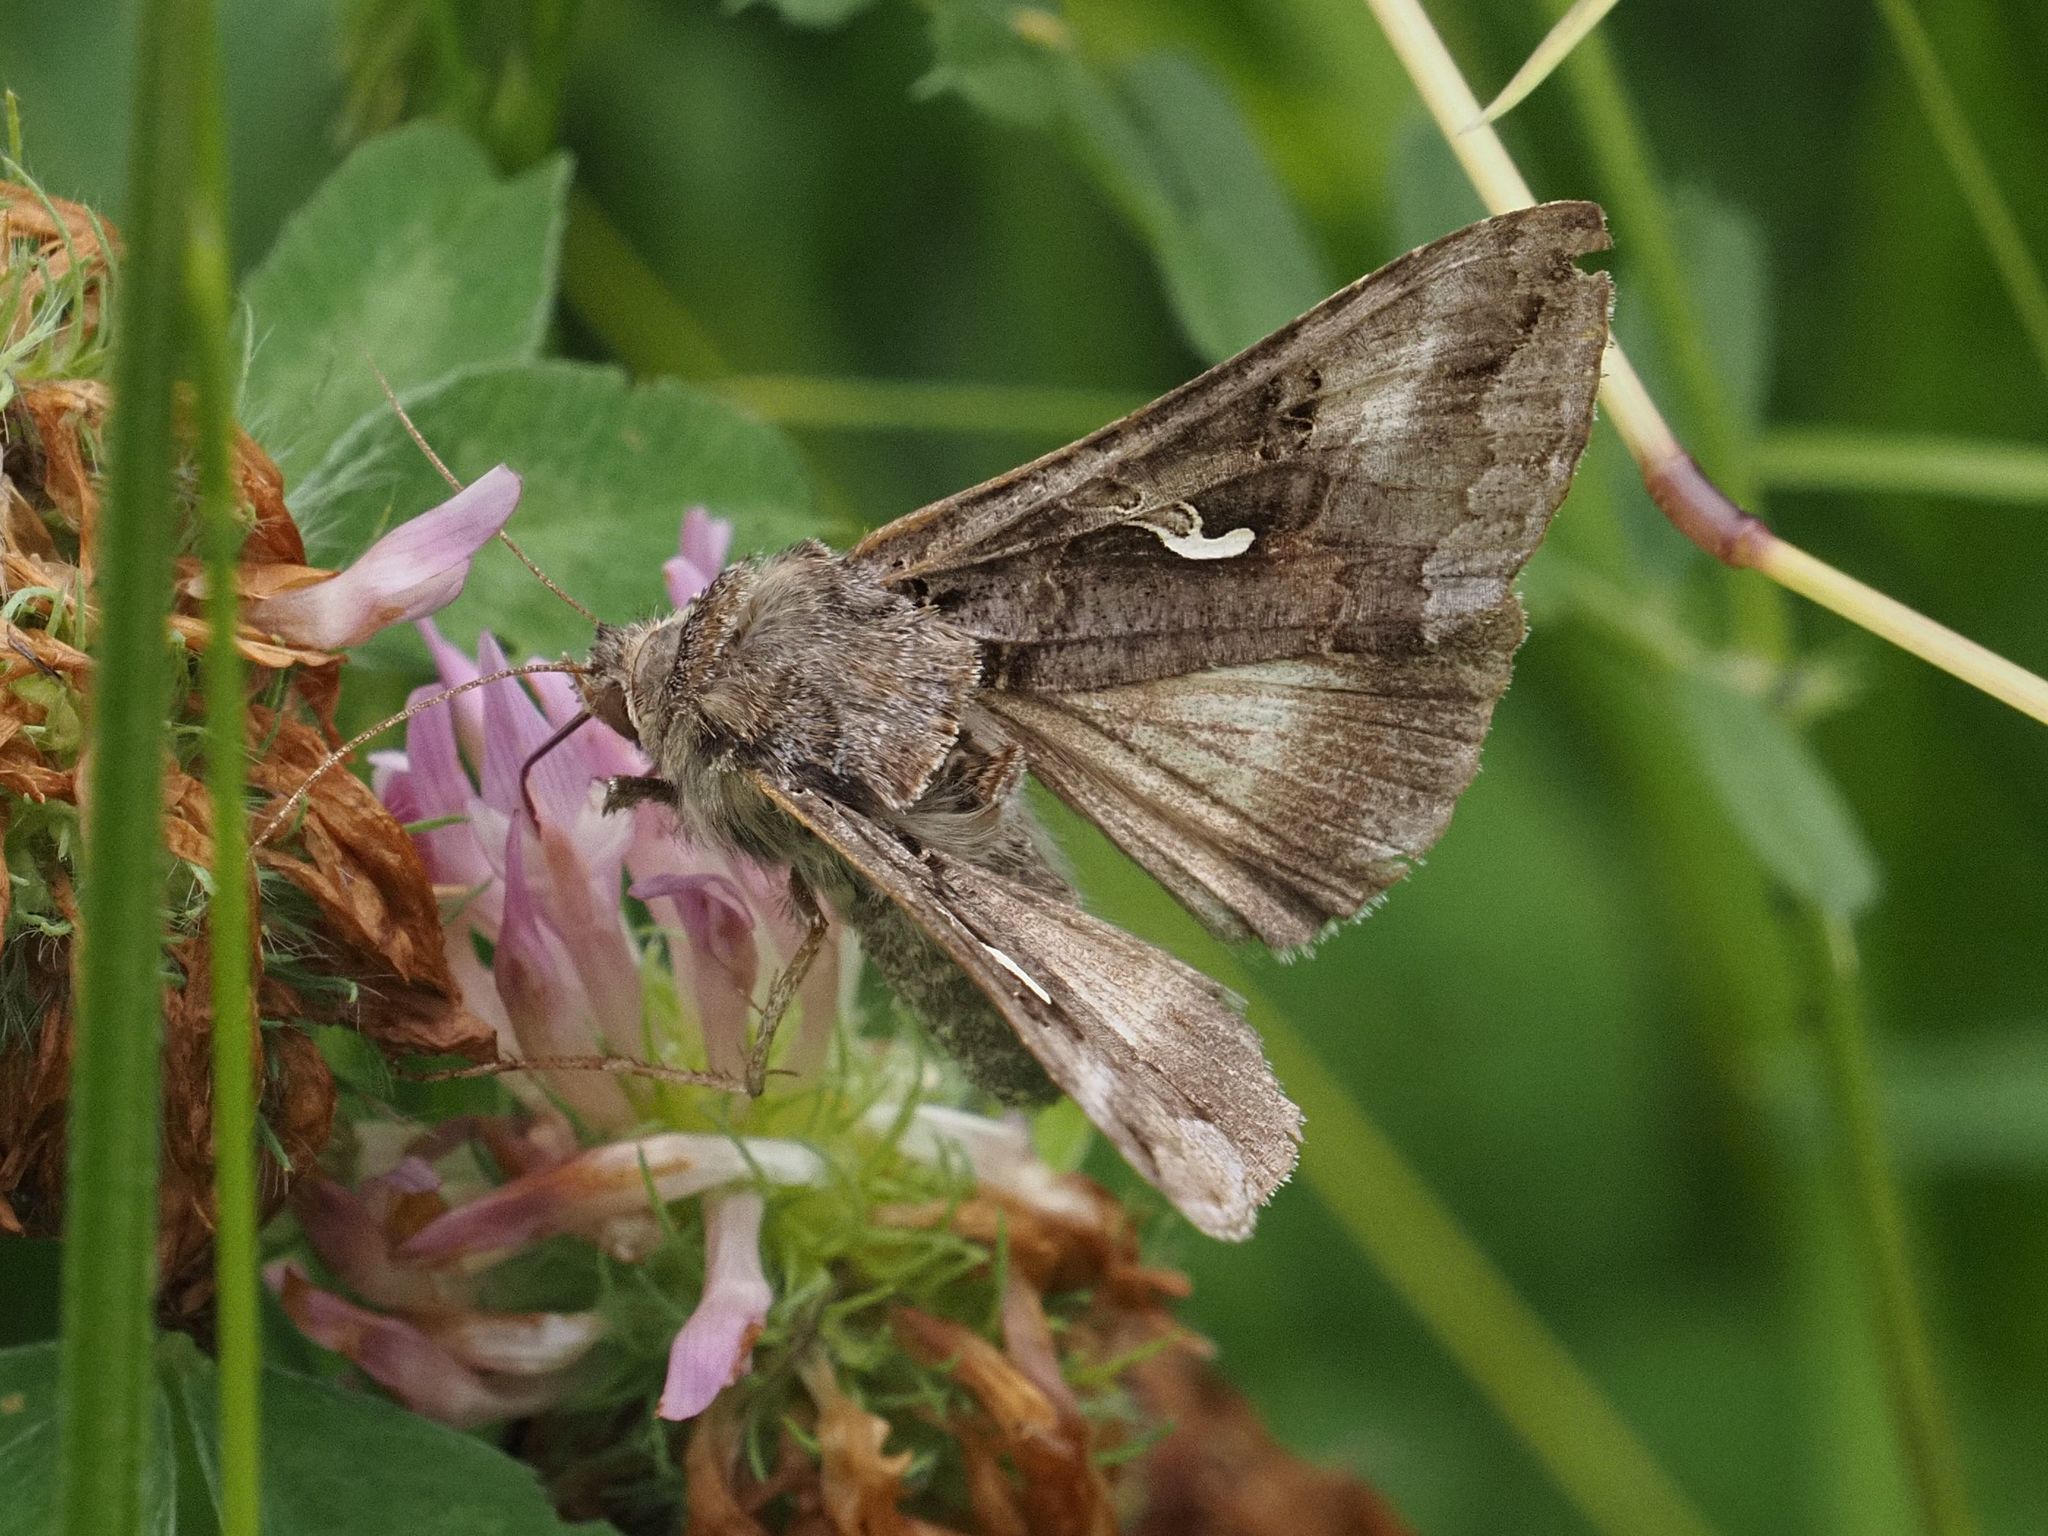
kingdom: Animalia
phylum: Arthropoda
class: Insecta
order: Lepidoptera
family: Noctuidae
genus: Autographa
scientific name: Autographa gamma
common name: Silver y
